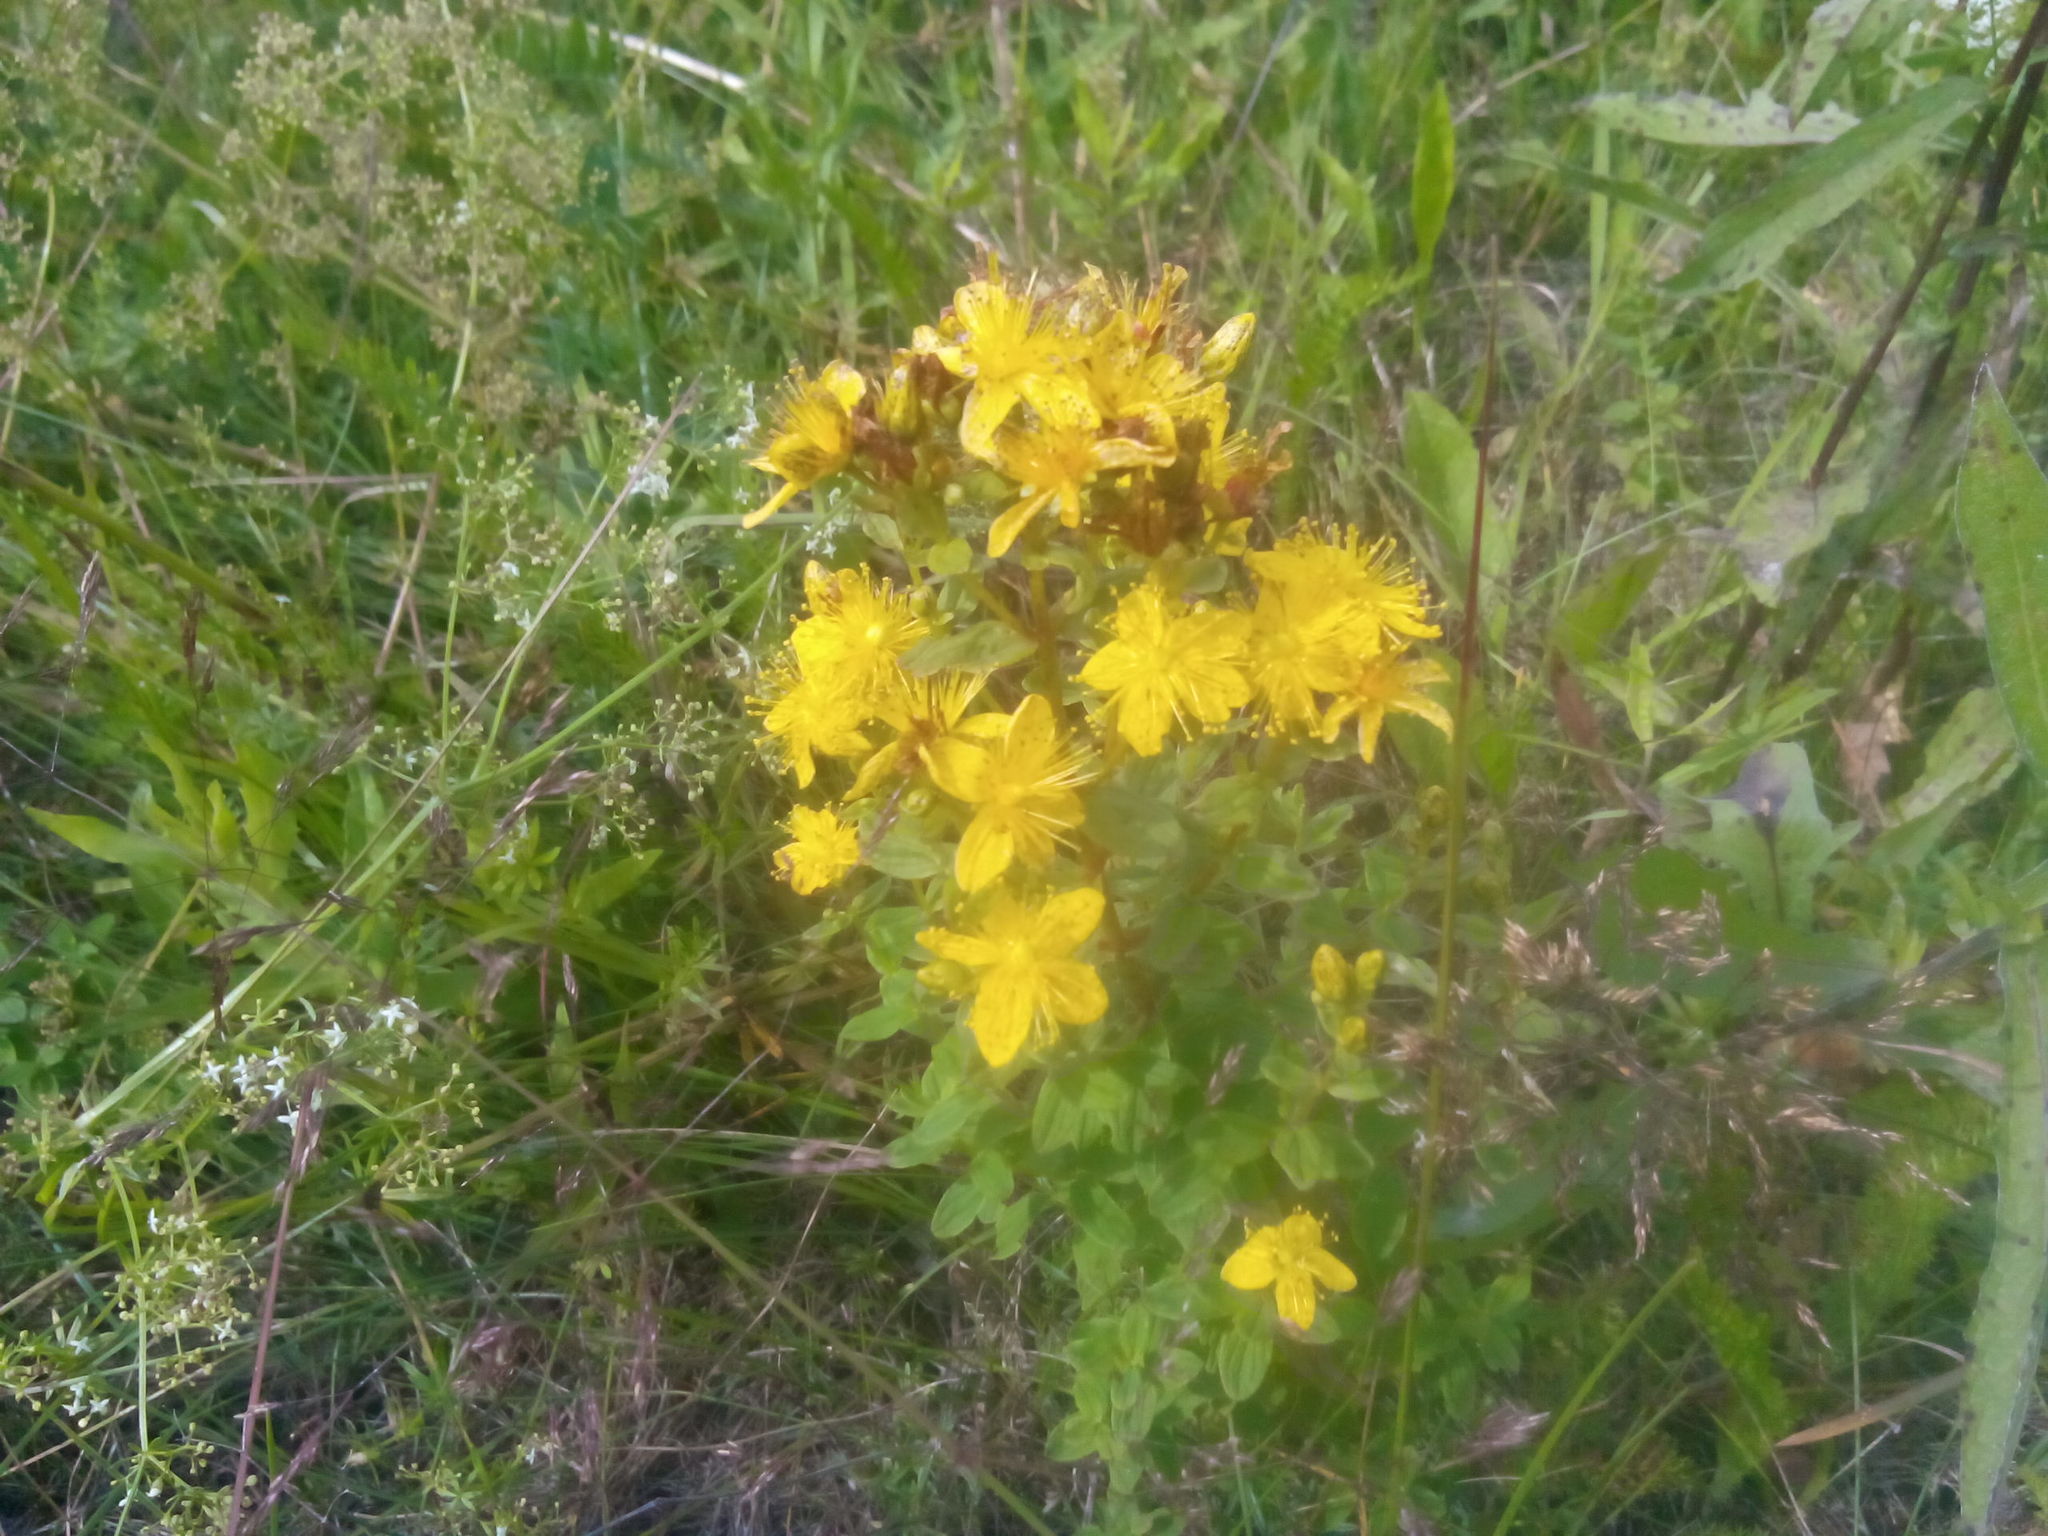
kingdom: Plantae
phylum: Tracheophyta
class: Magnoliopsida
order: Malpighiales
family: Hypericaceae
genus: Hypericum
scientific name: Hypericum maculatum
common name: Imperforate st. john's-wort
